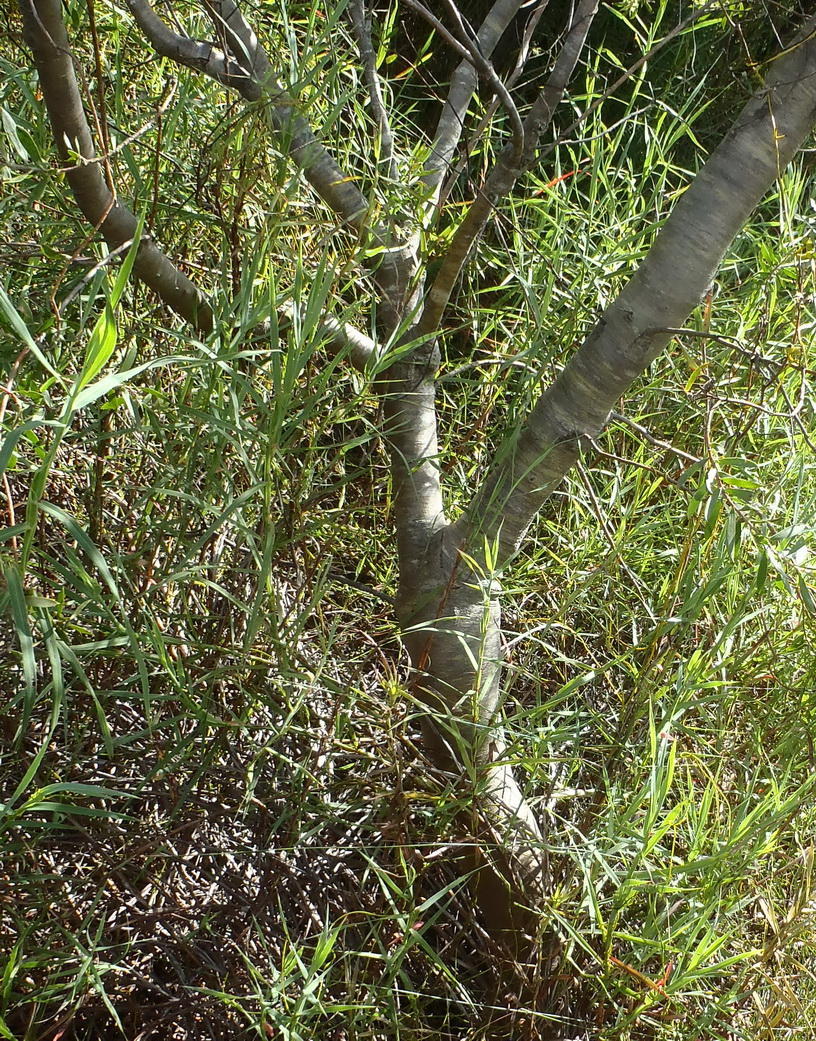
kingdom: Plantae
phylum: Tracheophyta
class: Magnoliopsida
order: Proteales
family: Proteaceae
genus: Leucadendron
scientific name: Leucadendron conicum
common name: Garden route conebush
